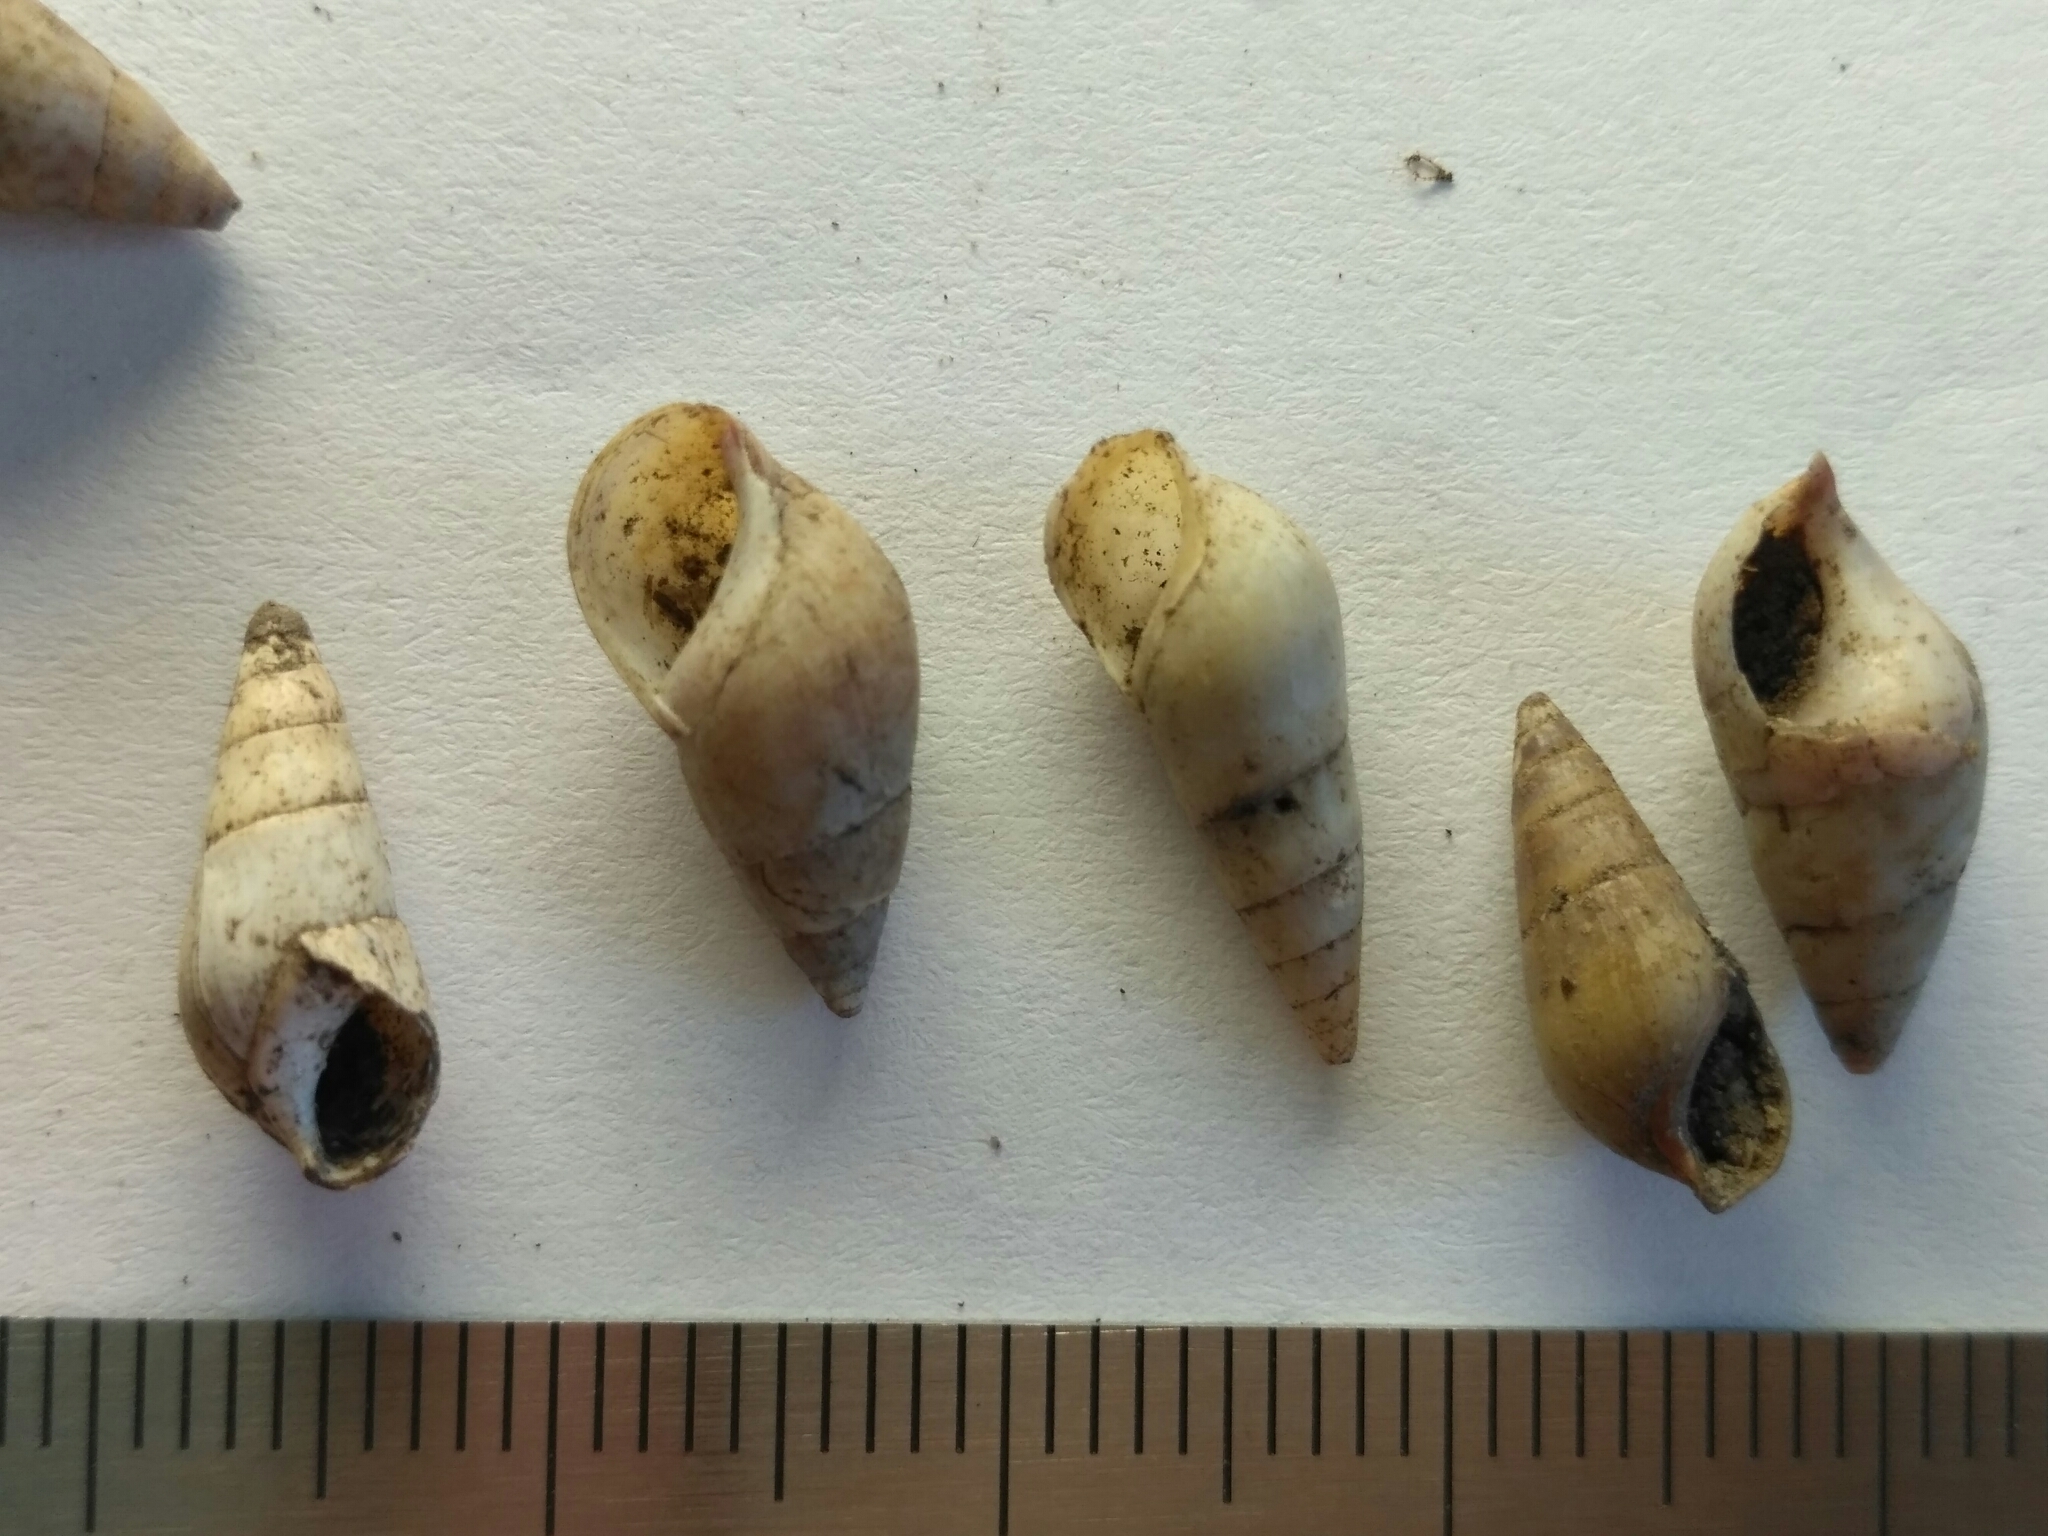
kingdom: Animalia
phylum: Mollusca
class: Gastropoda
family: Melanopsidae
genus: Microcolpia
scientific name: Microcolpia daudebartii
